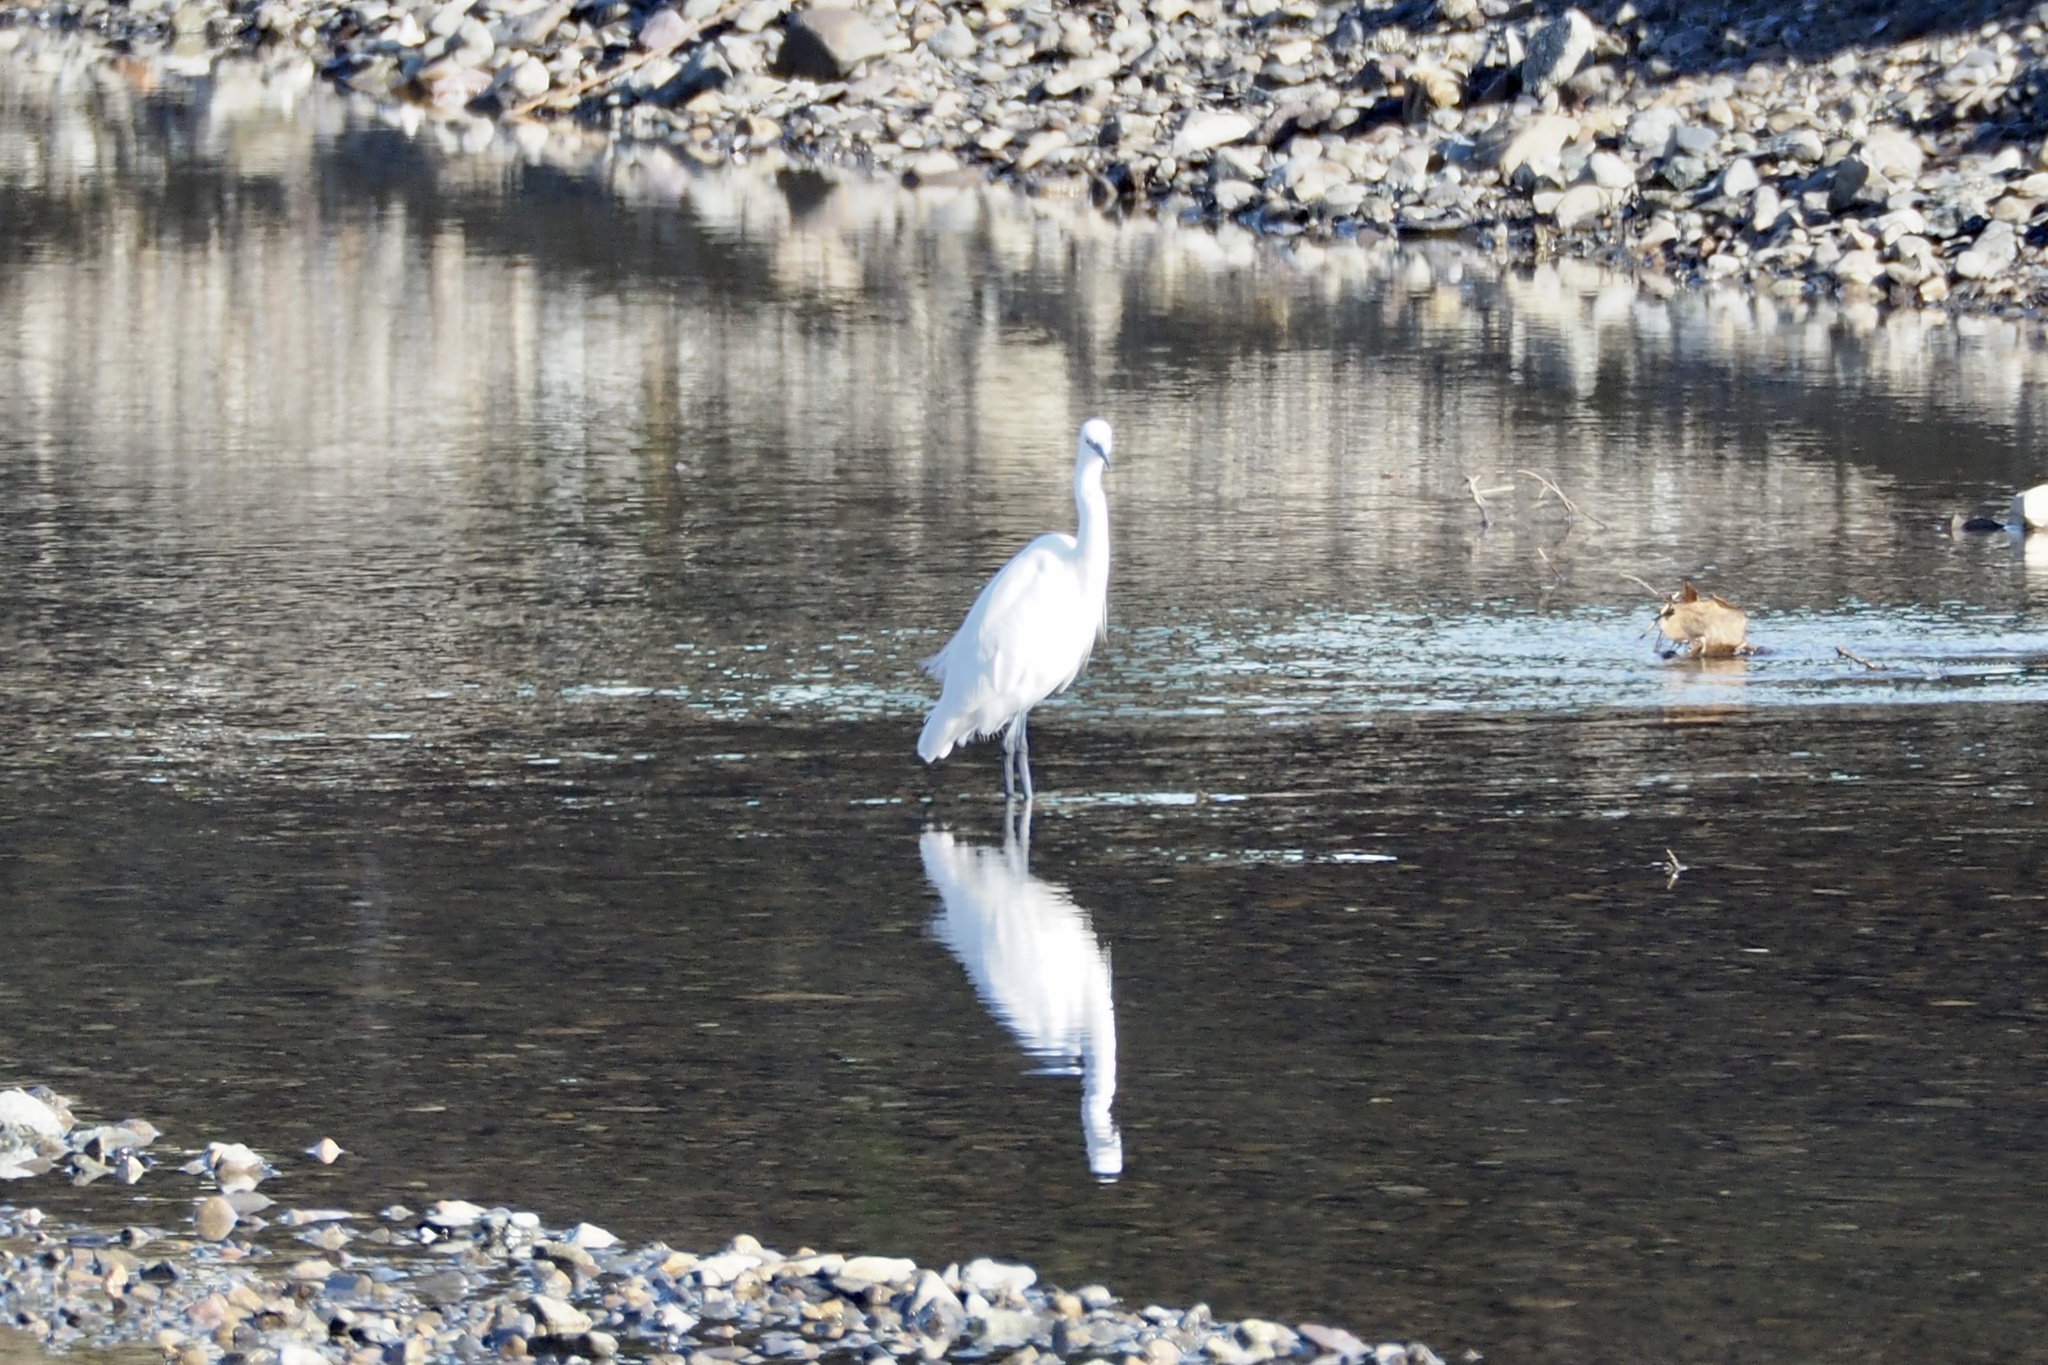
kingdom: Animalia
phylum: Chordata
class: Aves
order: Pelecaniformes
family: Ardeidae
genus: Egretta
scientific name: Egretta garzetta
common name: Little egret
